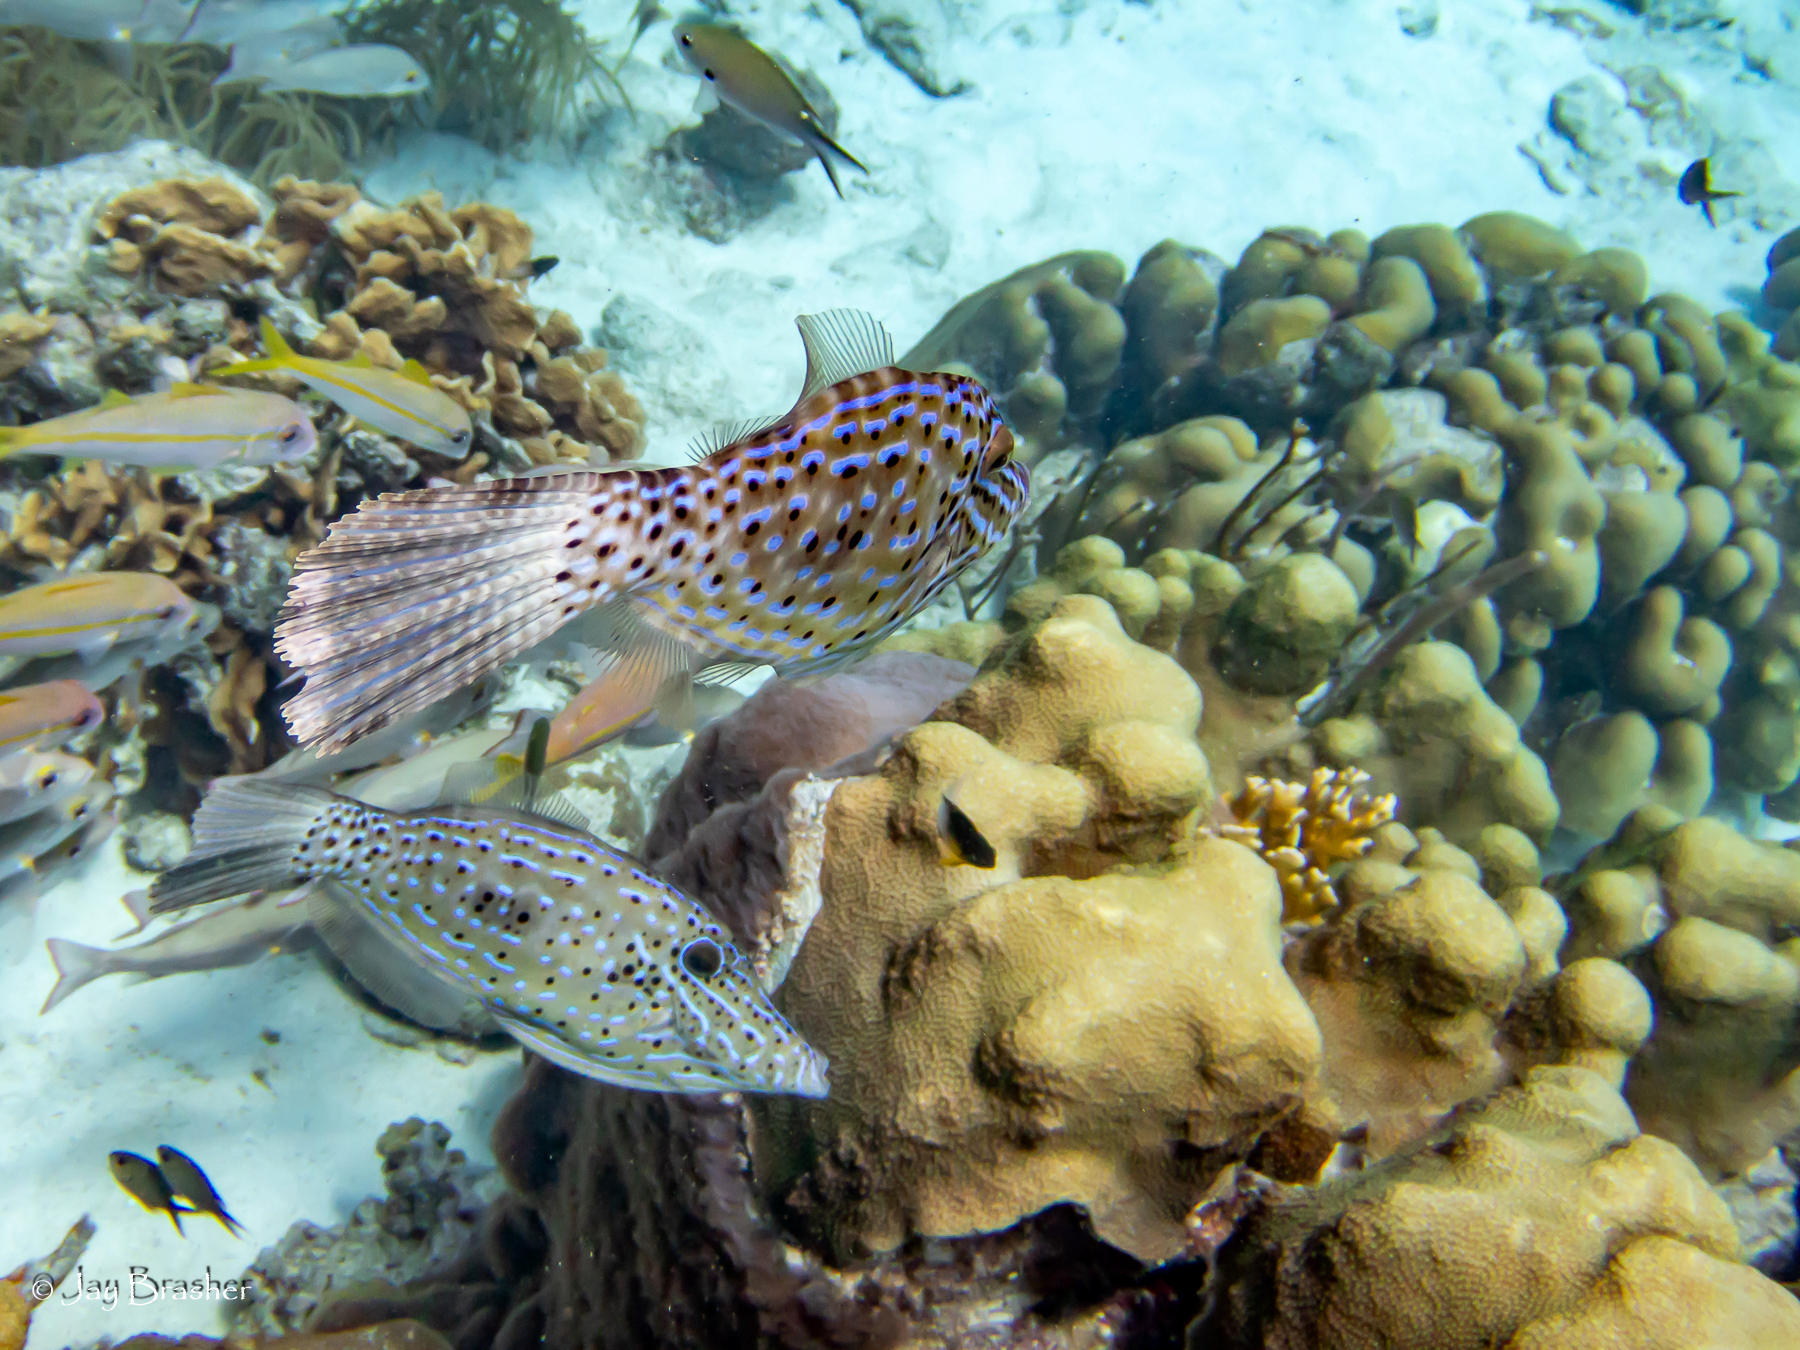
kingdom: Animalia
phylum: Chordata
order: Tetraodontiformes
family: Monacanthidae
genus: Aluterus
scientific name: Aluterus scriptus
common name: Scribbled leatherjacket filefish
